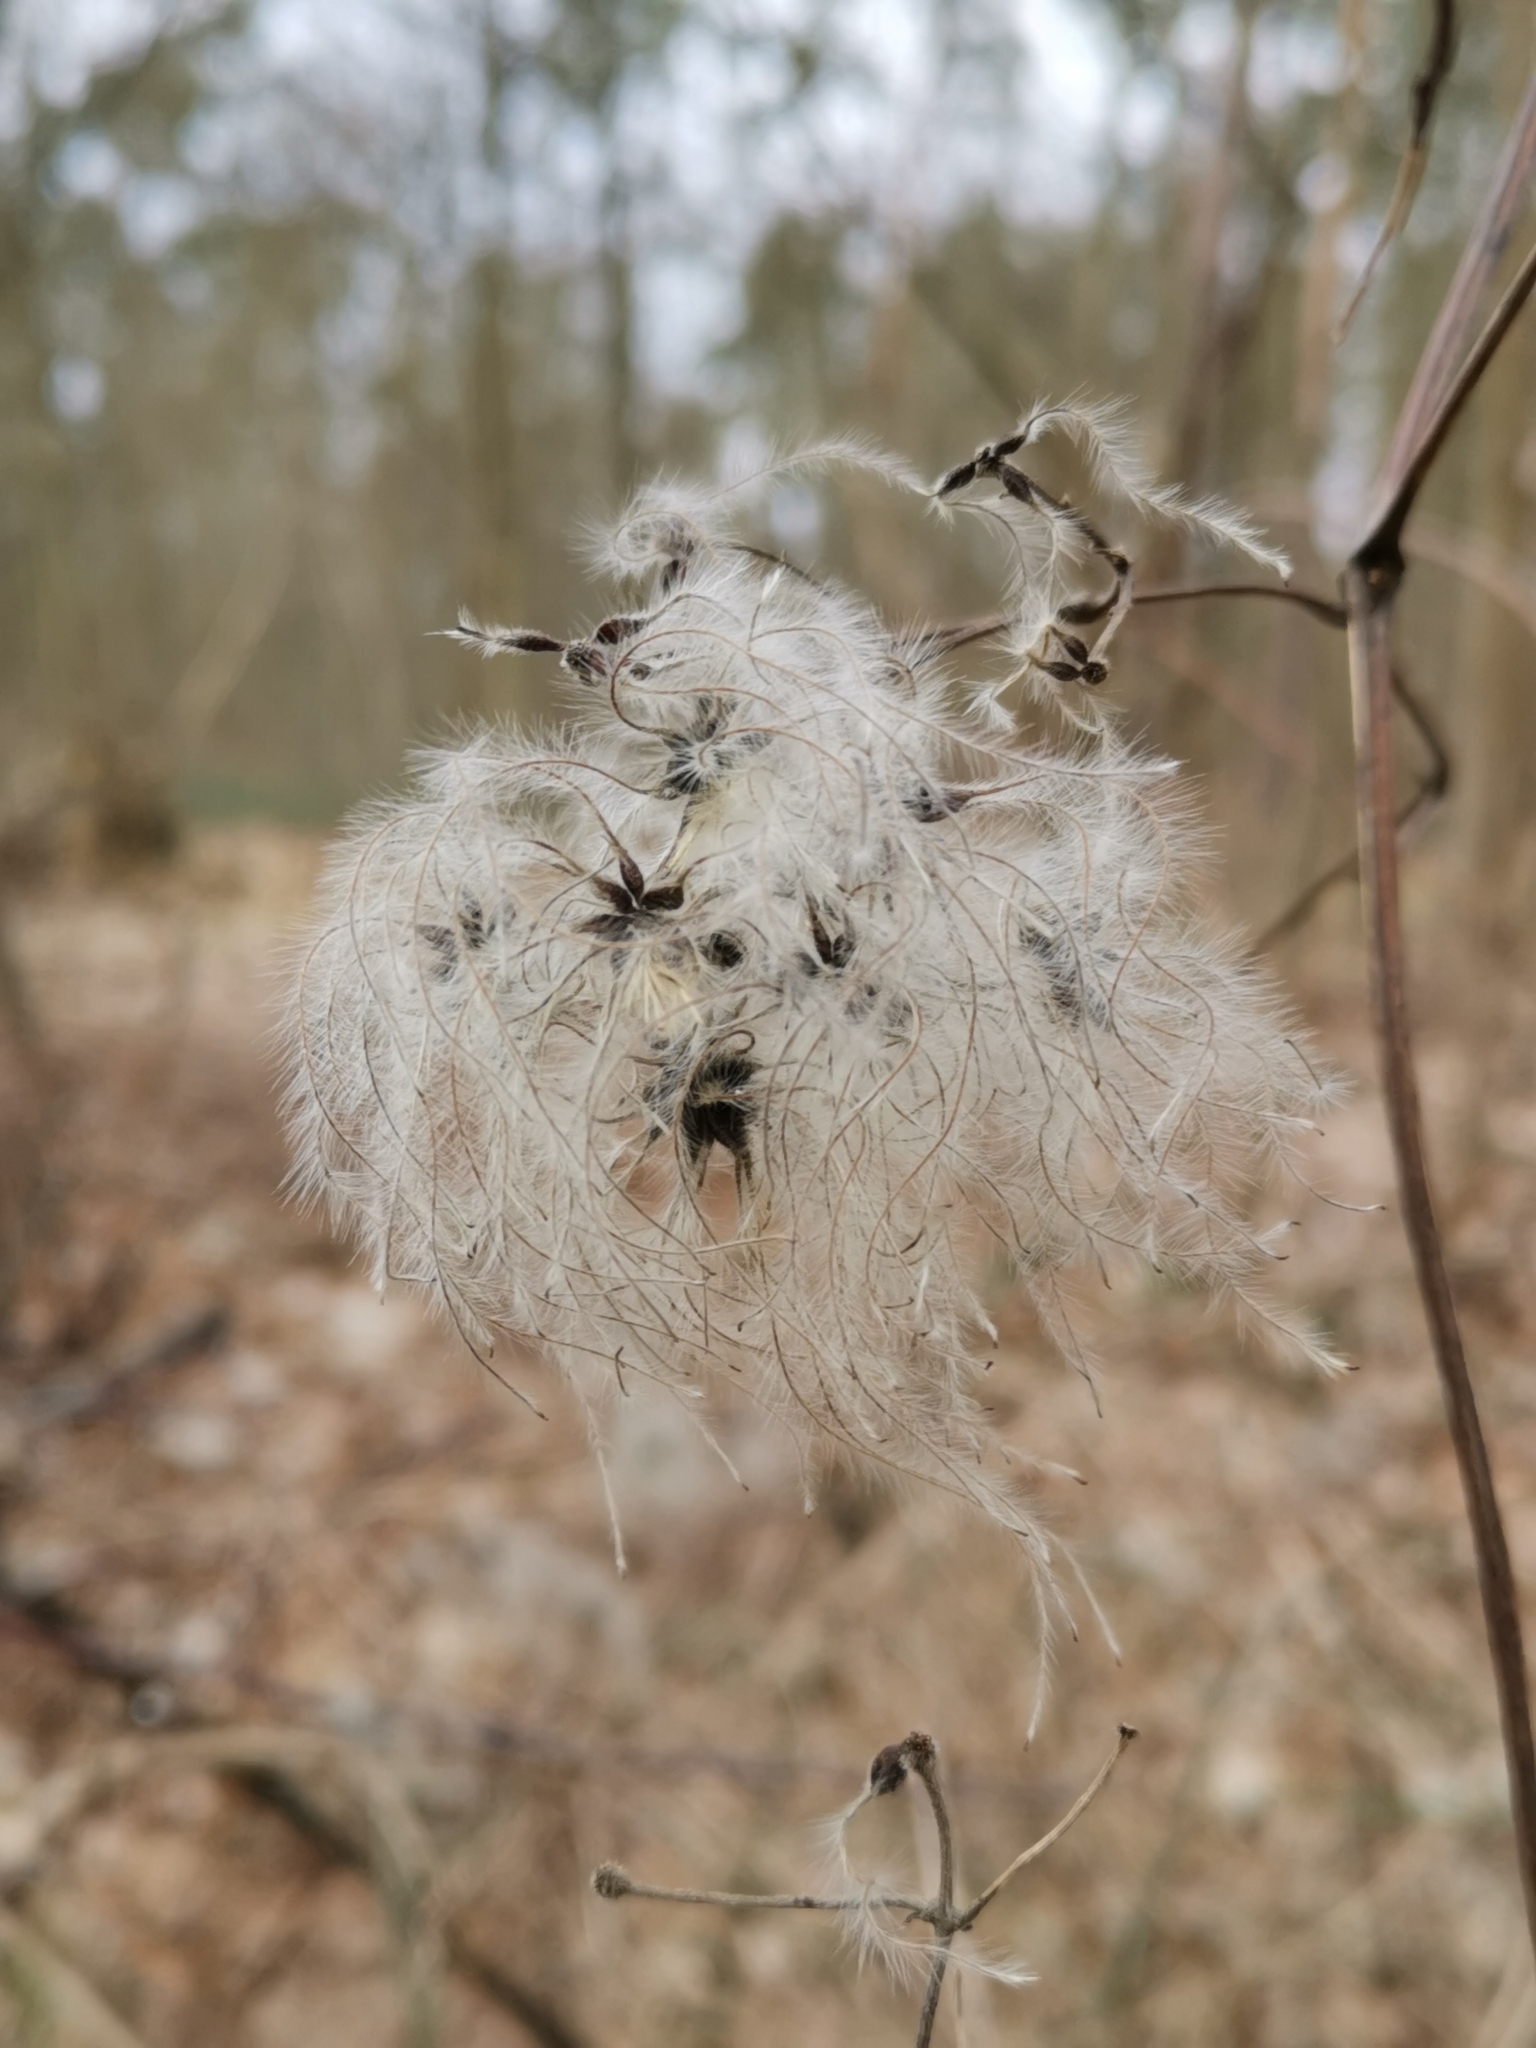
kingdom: Plantae
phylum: Tracheophyta
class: Magnoliopsida
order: Ranunculales
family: Ranunculaceae
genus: Clematis
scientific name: Clematis vitalba
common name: Evergreen clematis
